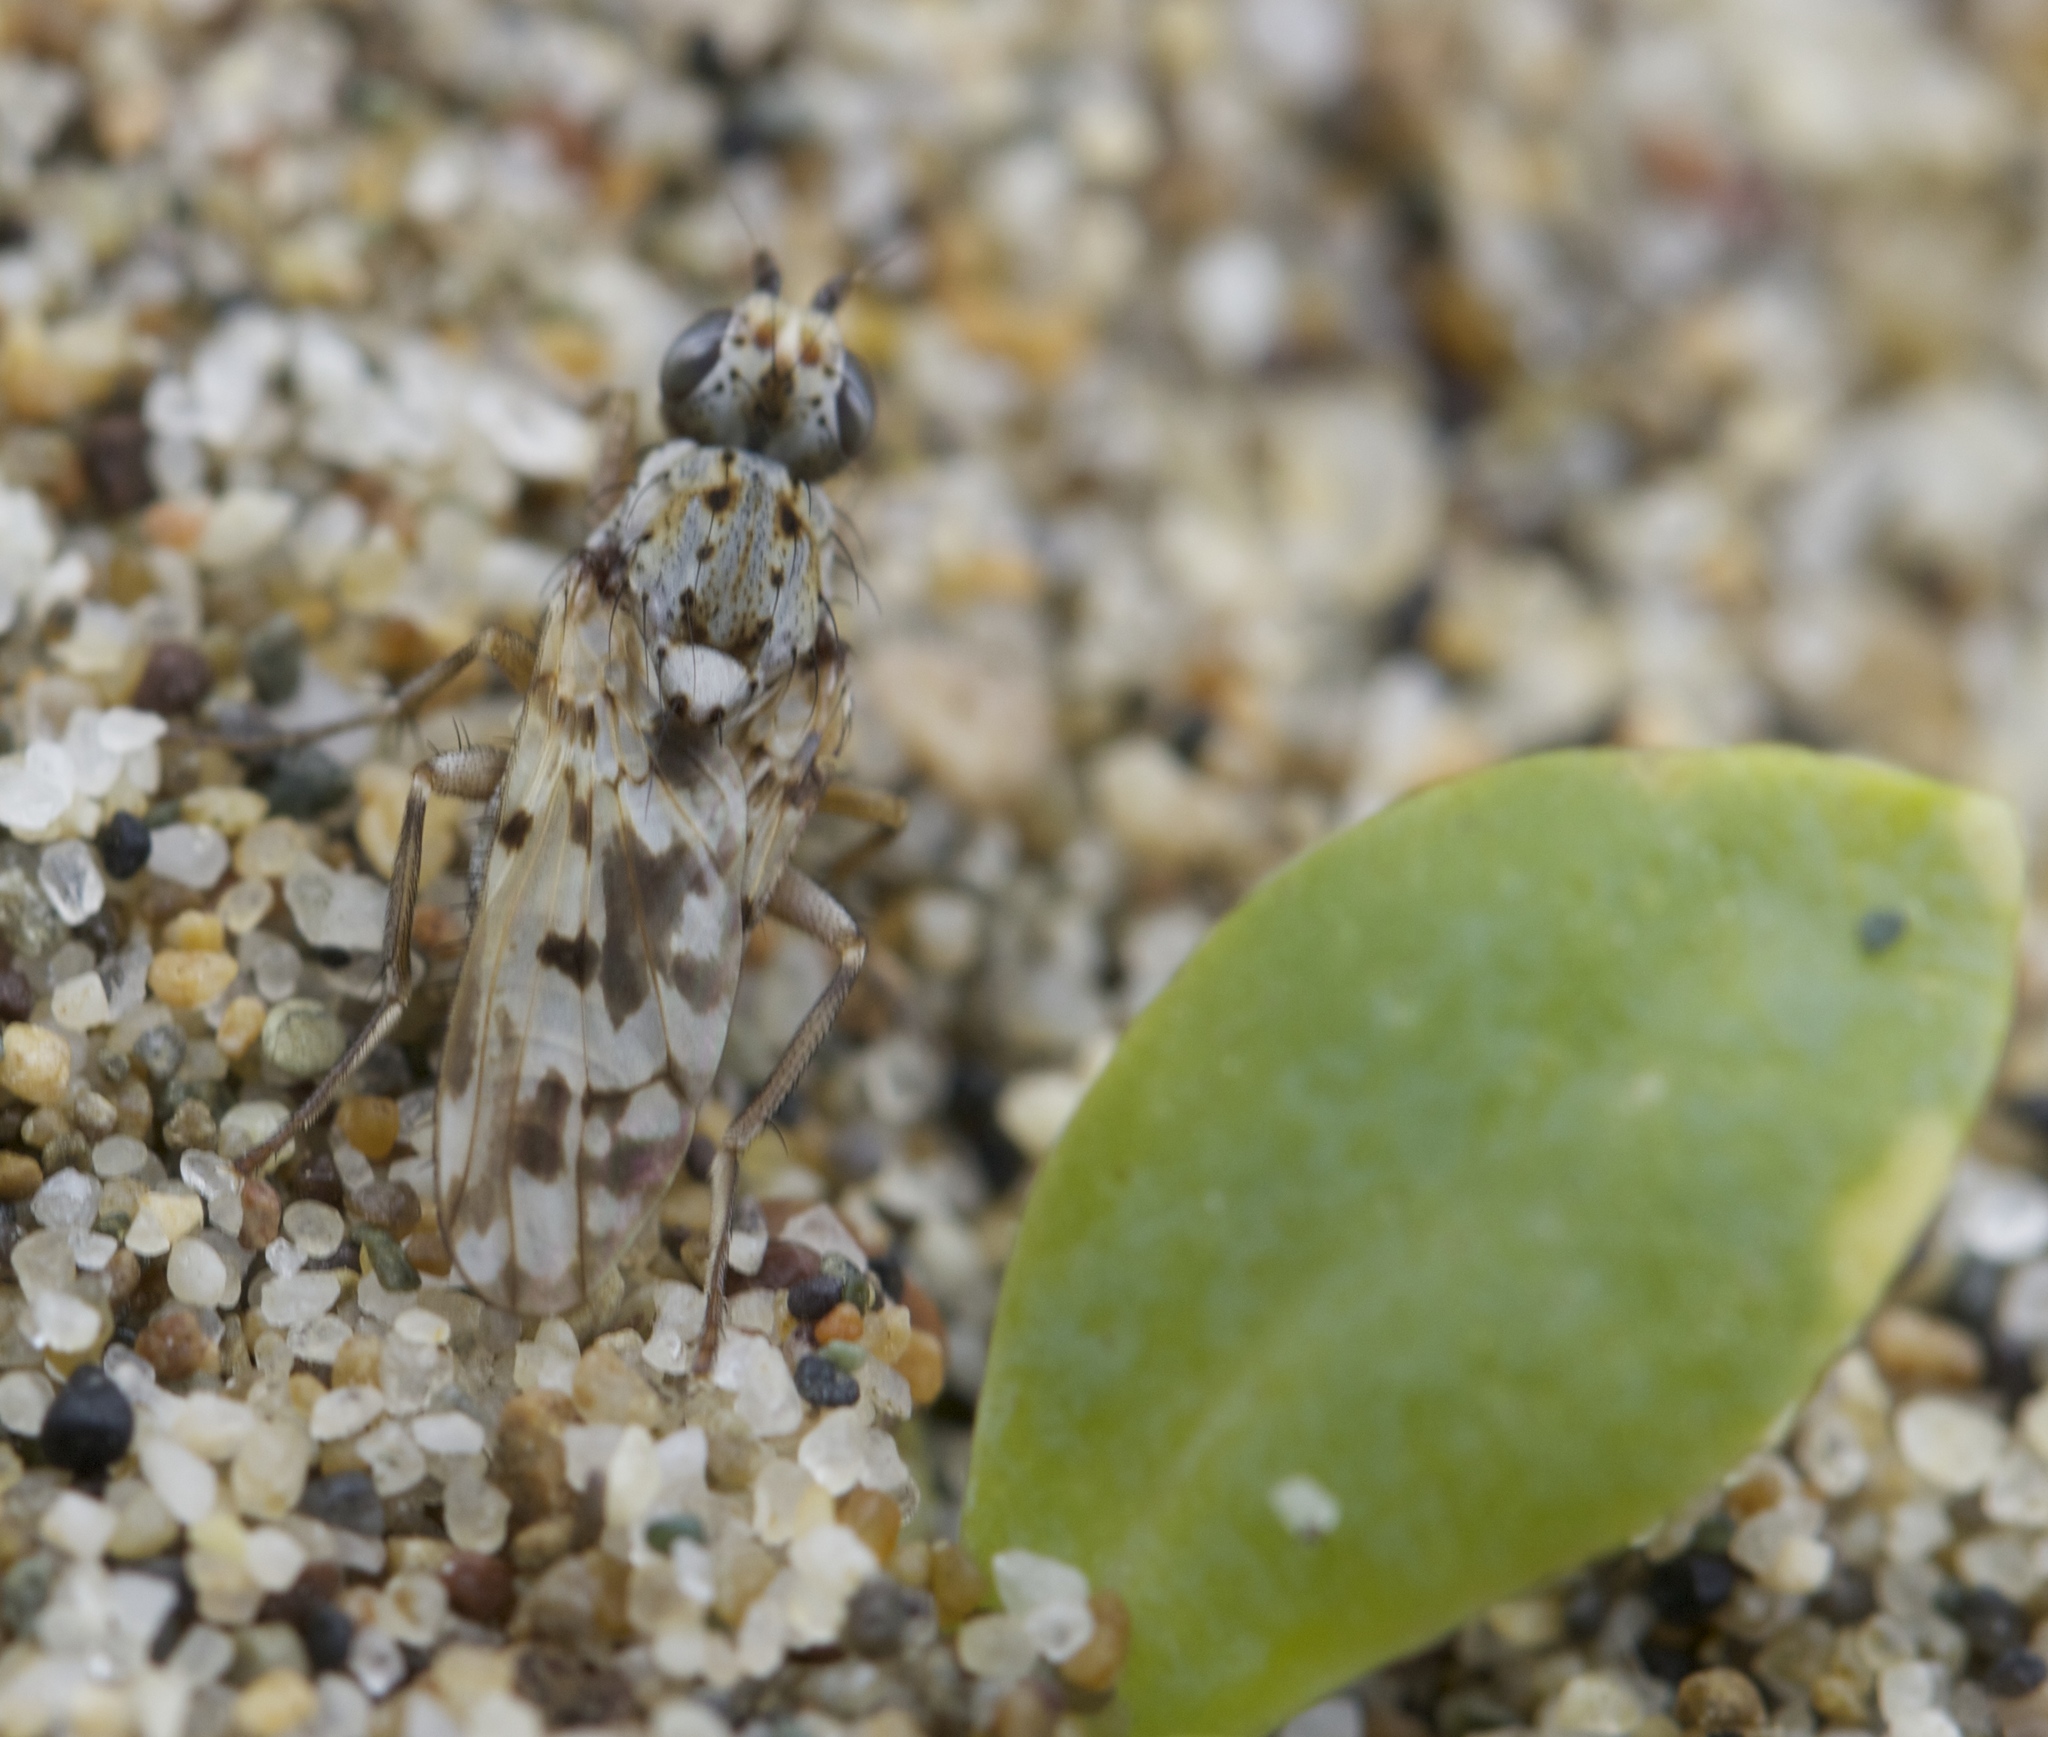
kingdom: Animalia
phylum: Arthropoda
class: Insecta
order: Diptera
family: Heleomyzidae
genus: Anorostoma
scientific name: Anorostoma maculatum
